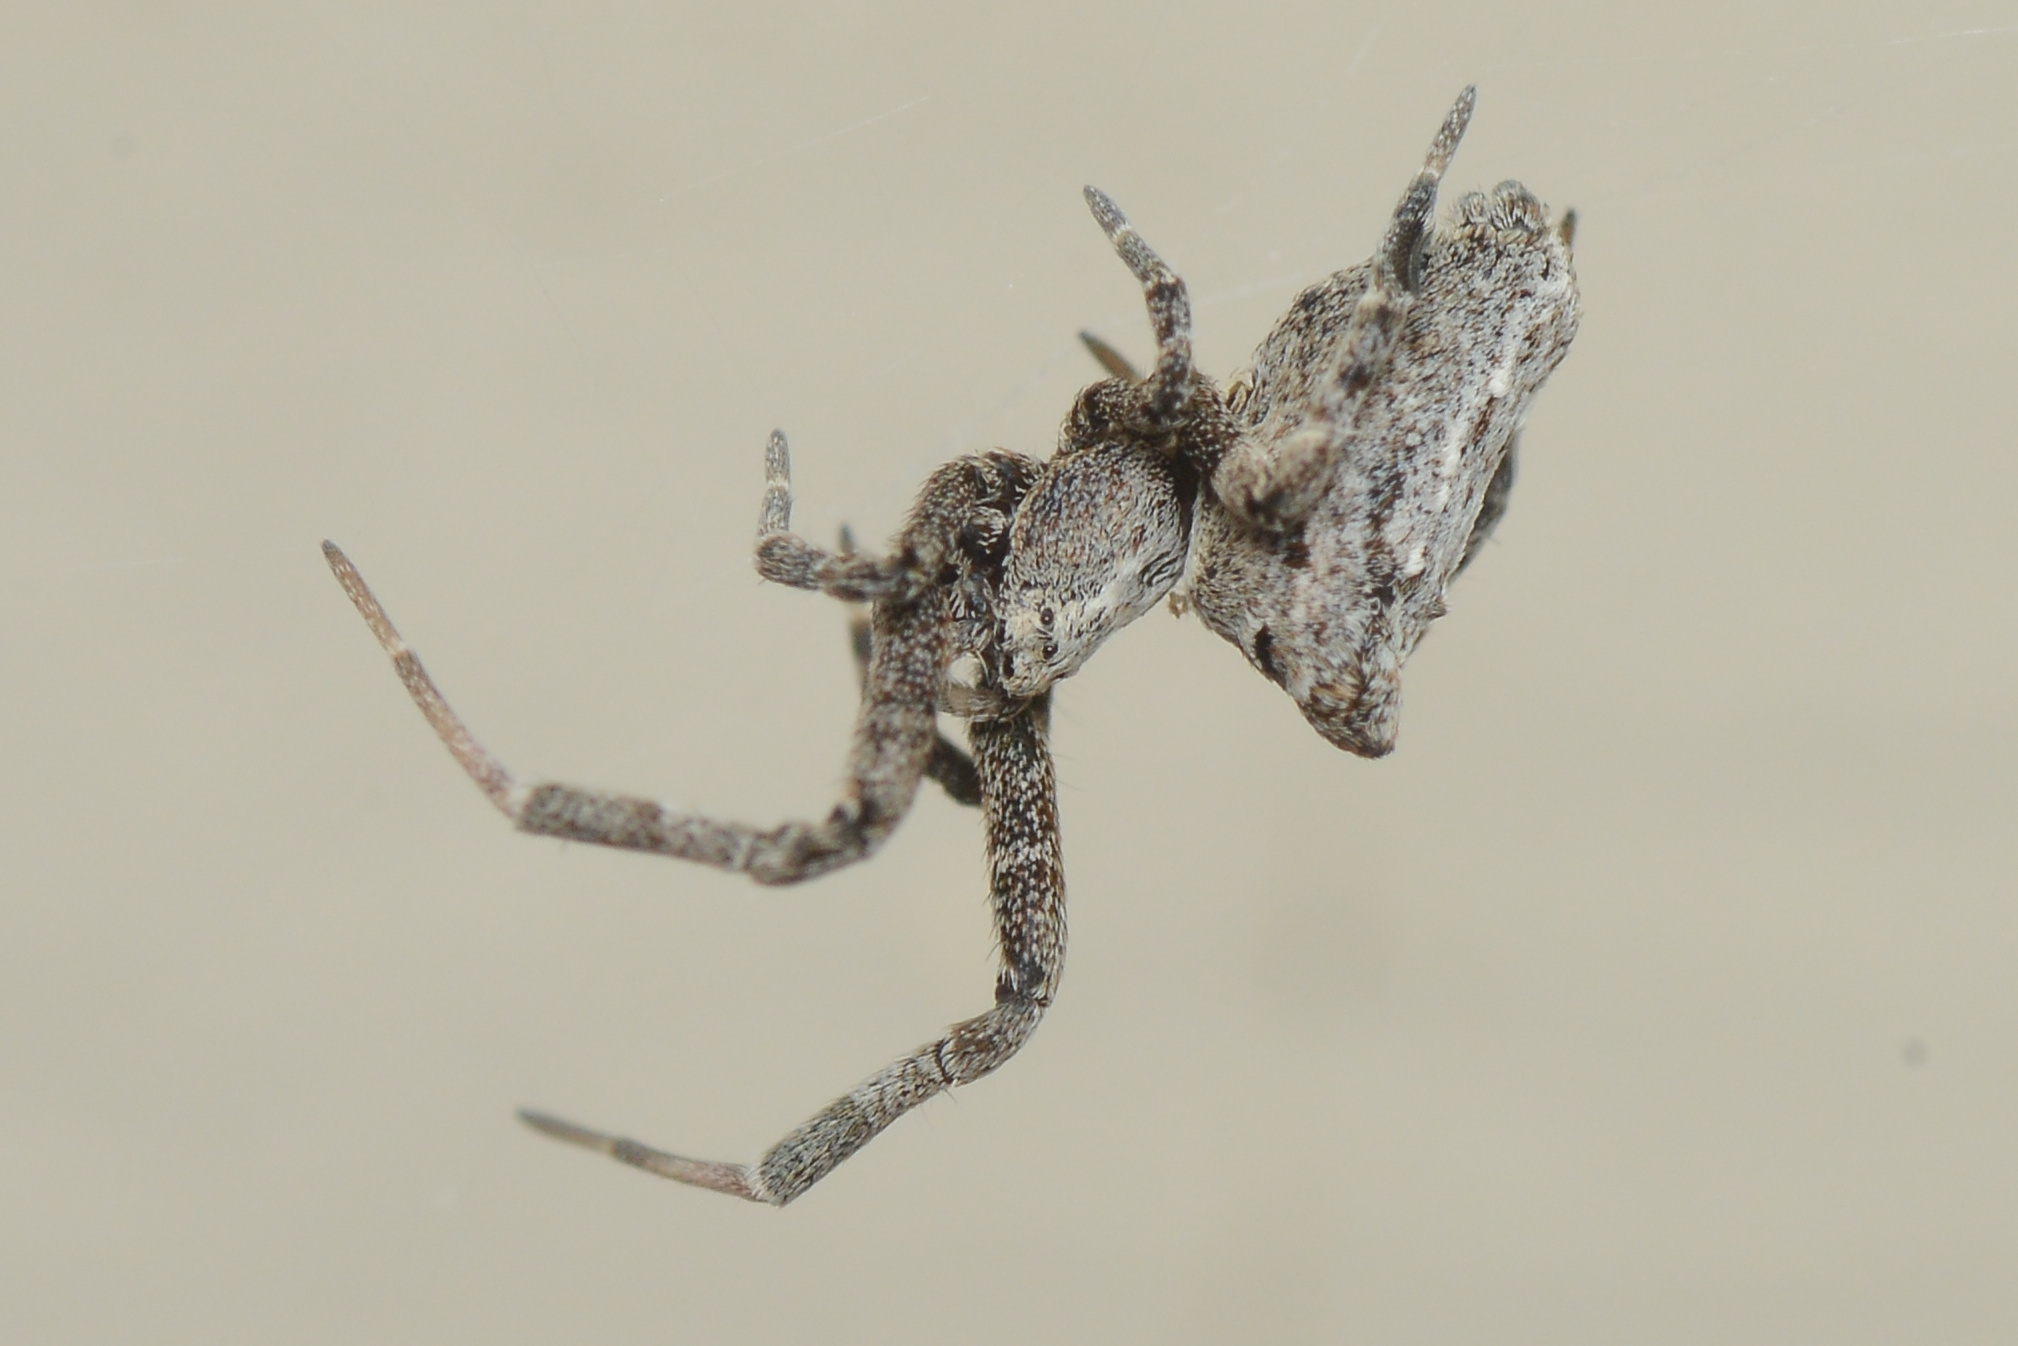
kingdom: Animalia
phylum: Arthropoda
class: Arachnida
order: Araneae
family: Uloboridae
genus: Philoponella
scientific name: Philoponella congregabilis
